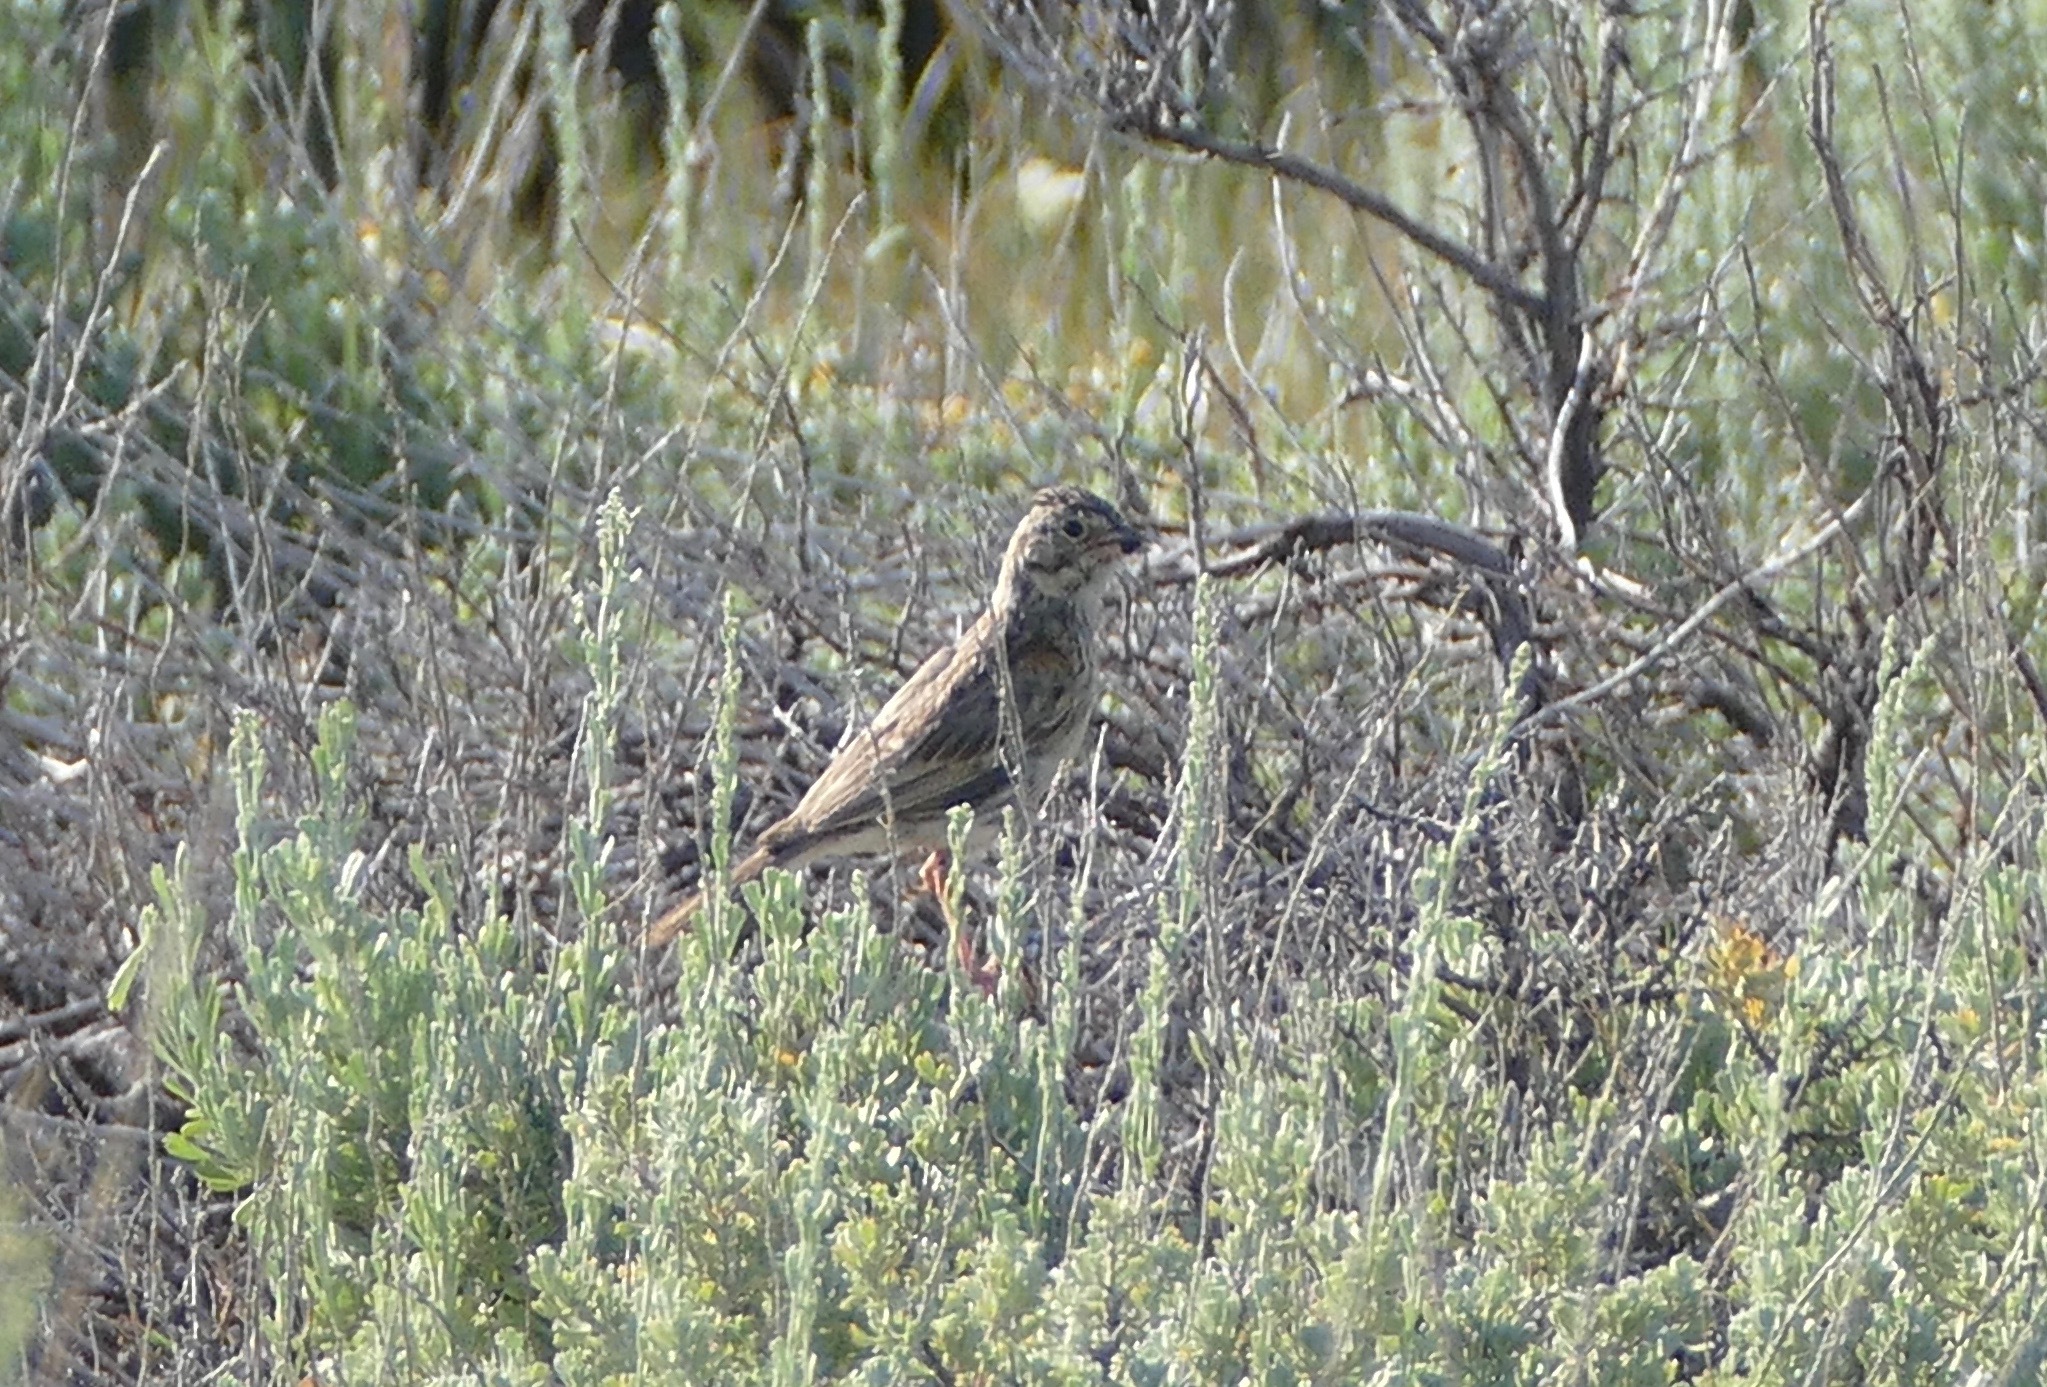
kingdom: Animalia
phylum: Chordata
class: Aves
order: Passeriformes
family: Passerellidae
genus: Pooecetes
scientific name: Pooecetes gramineus
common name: Vesper sparrow
